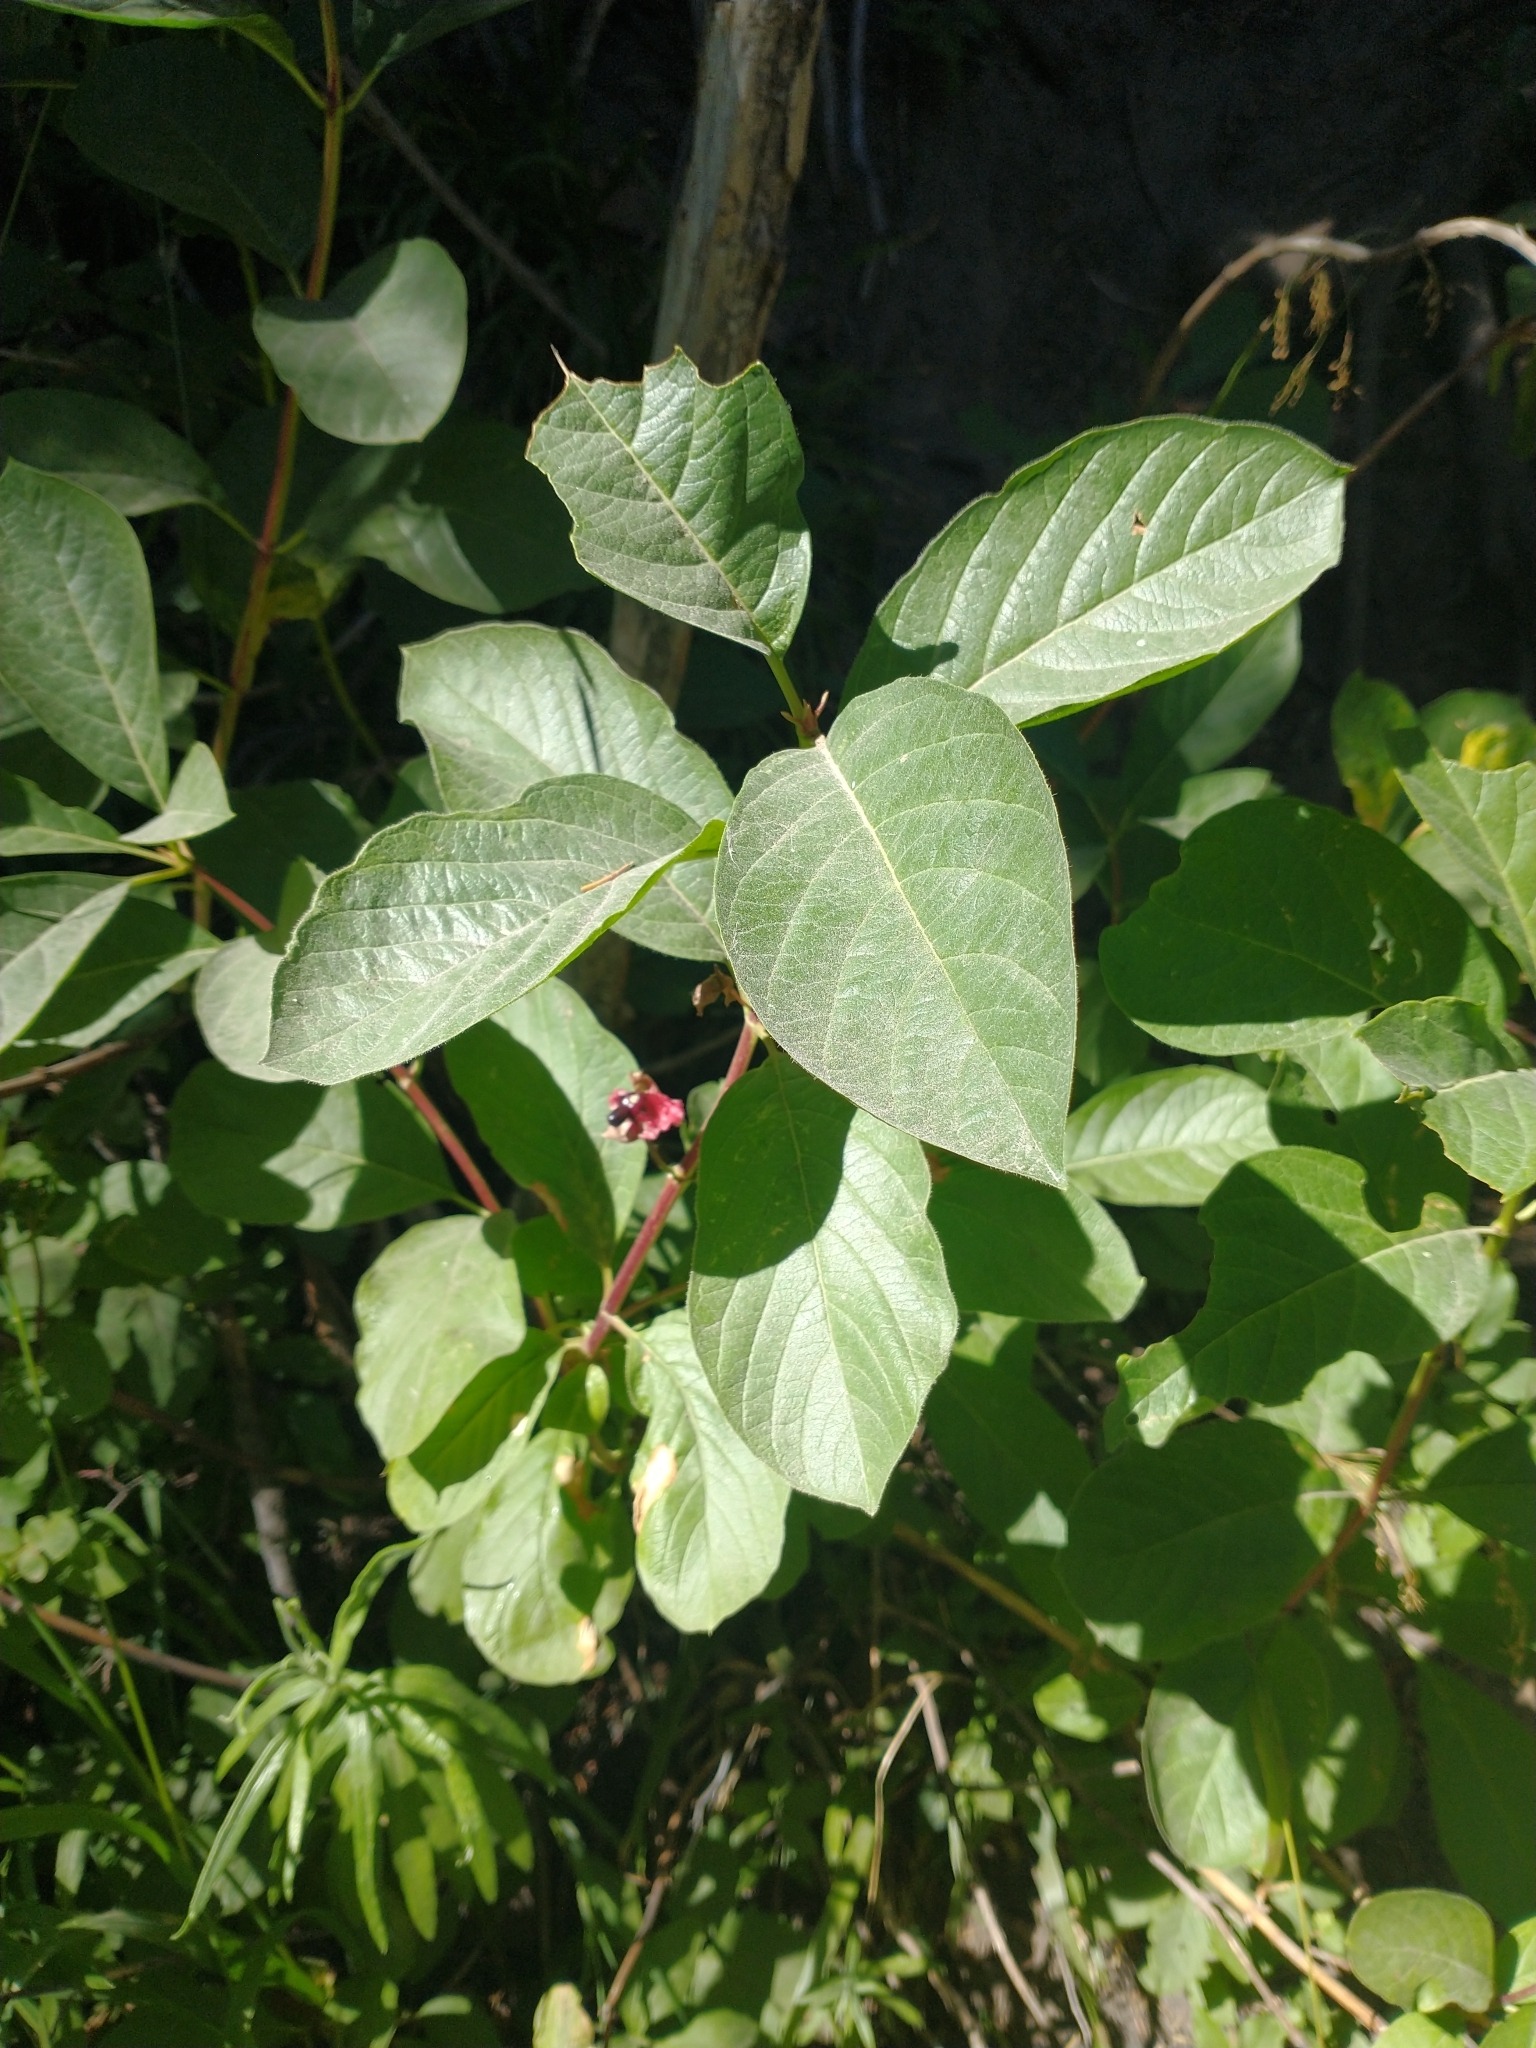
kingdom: Plantae
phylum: Tracheophyta
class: Magnoliopsida
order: Dipsacales
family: Caprifoliaceae
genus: Lonicera
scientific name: Lonicera involucrata
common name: Californian honeysuckle
